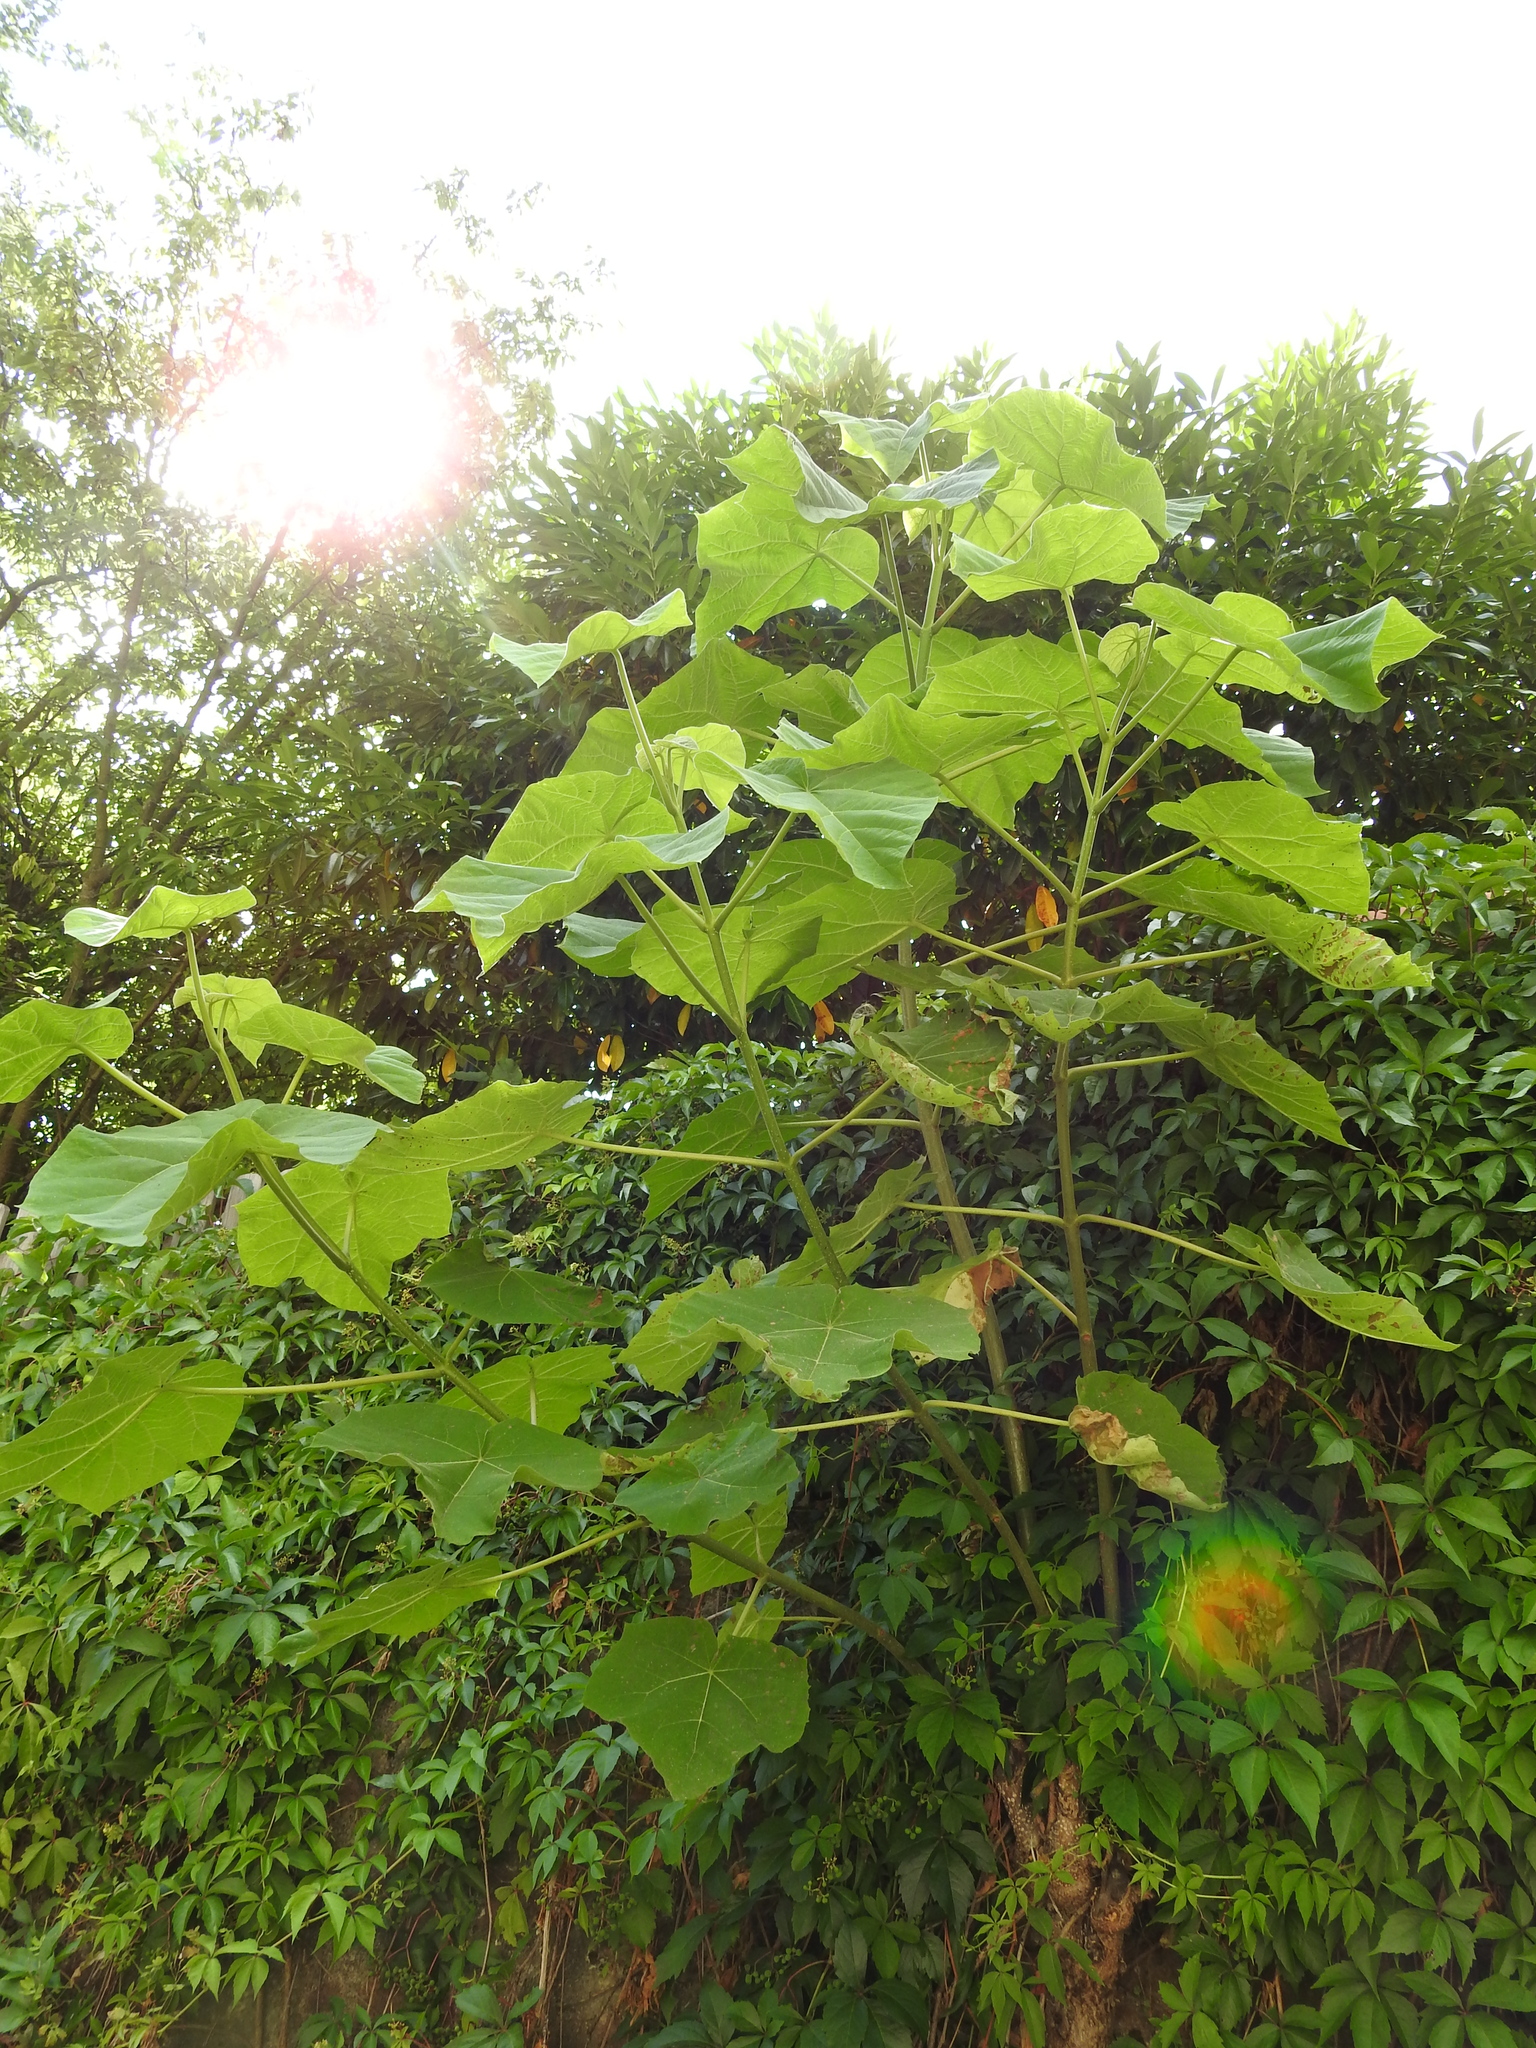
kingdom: Plantae
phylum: Tracheophyta
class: Magnoliopsida
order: Lamiales
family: Paulowniaceae
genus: Paulownia
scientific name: Paulownia tomentosa
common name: Foxglove-tree
